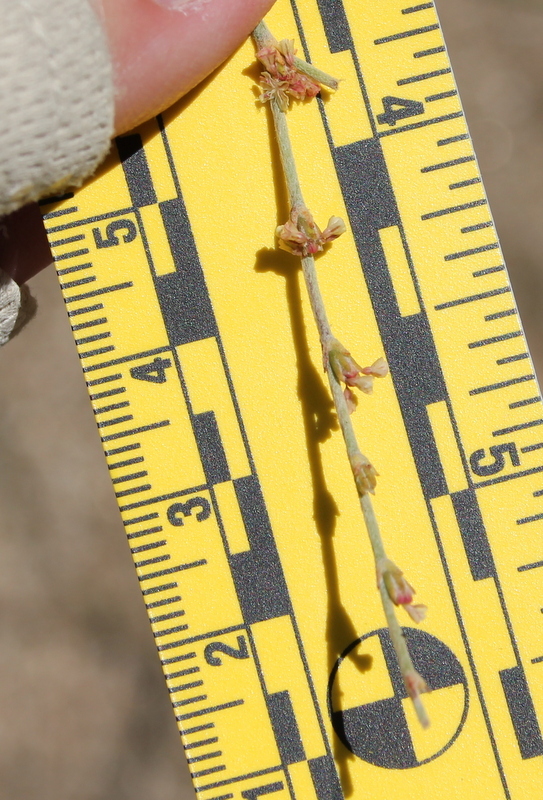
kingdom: Plantae
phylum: Tracheophyta
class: Magnoliopsida
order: Caryophyllales
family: Polygonaceae
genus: Eriogonum
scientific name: Eriogonum gracile
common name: Slender woolly buckwheat
